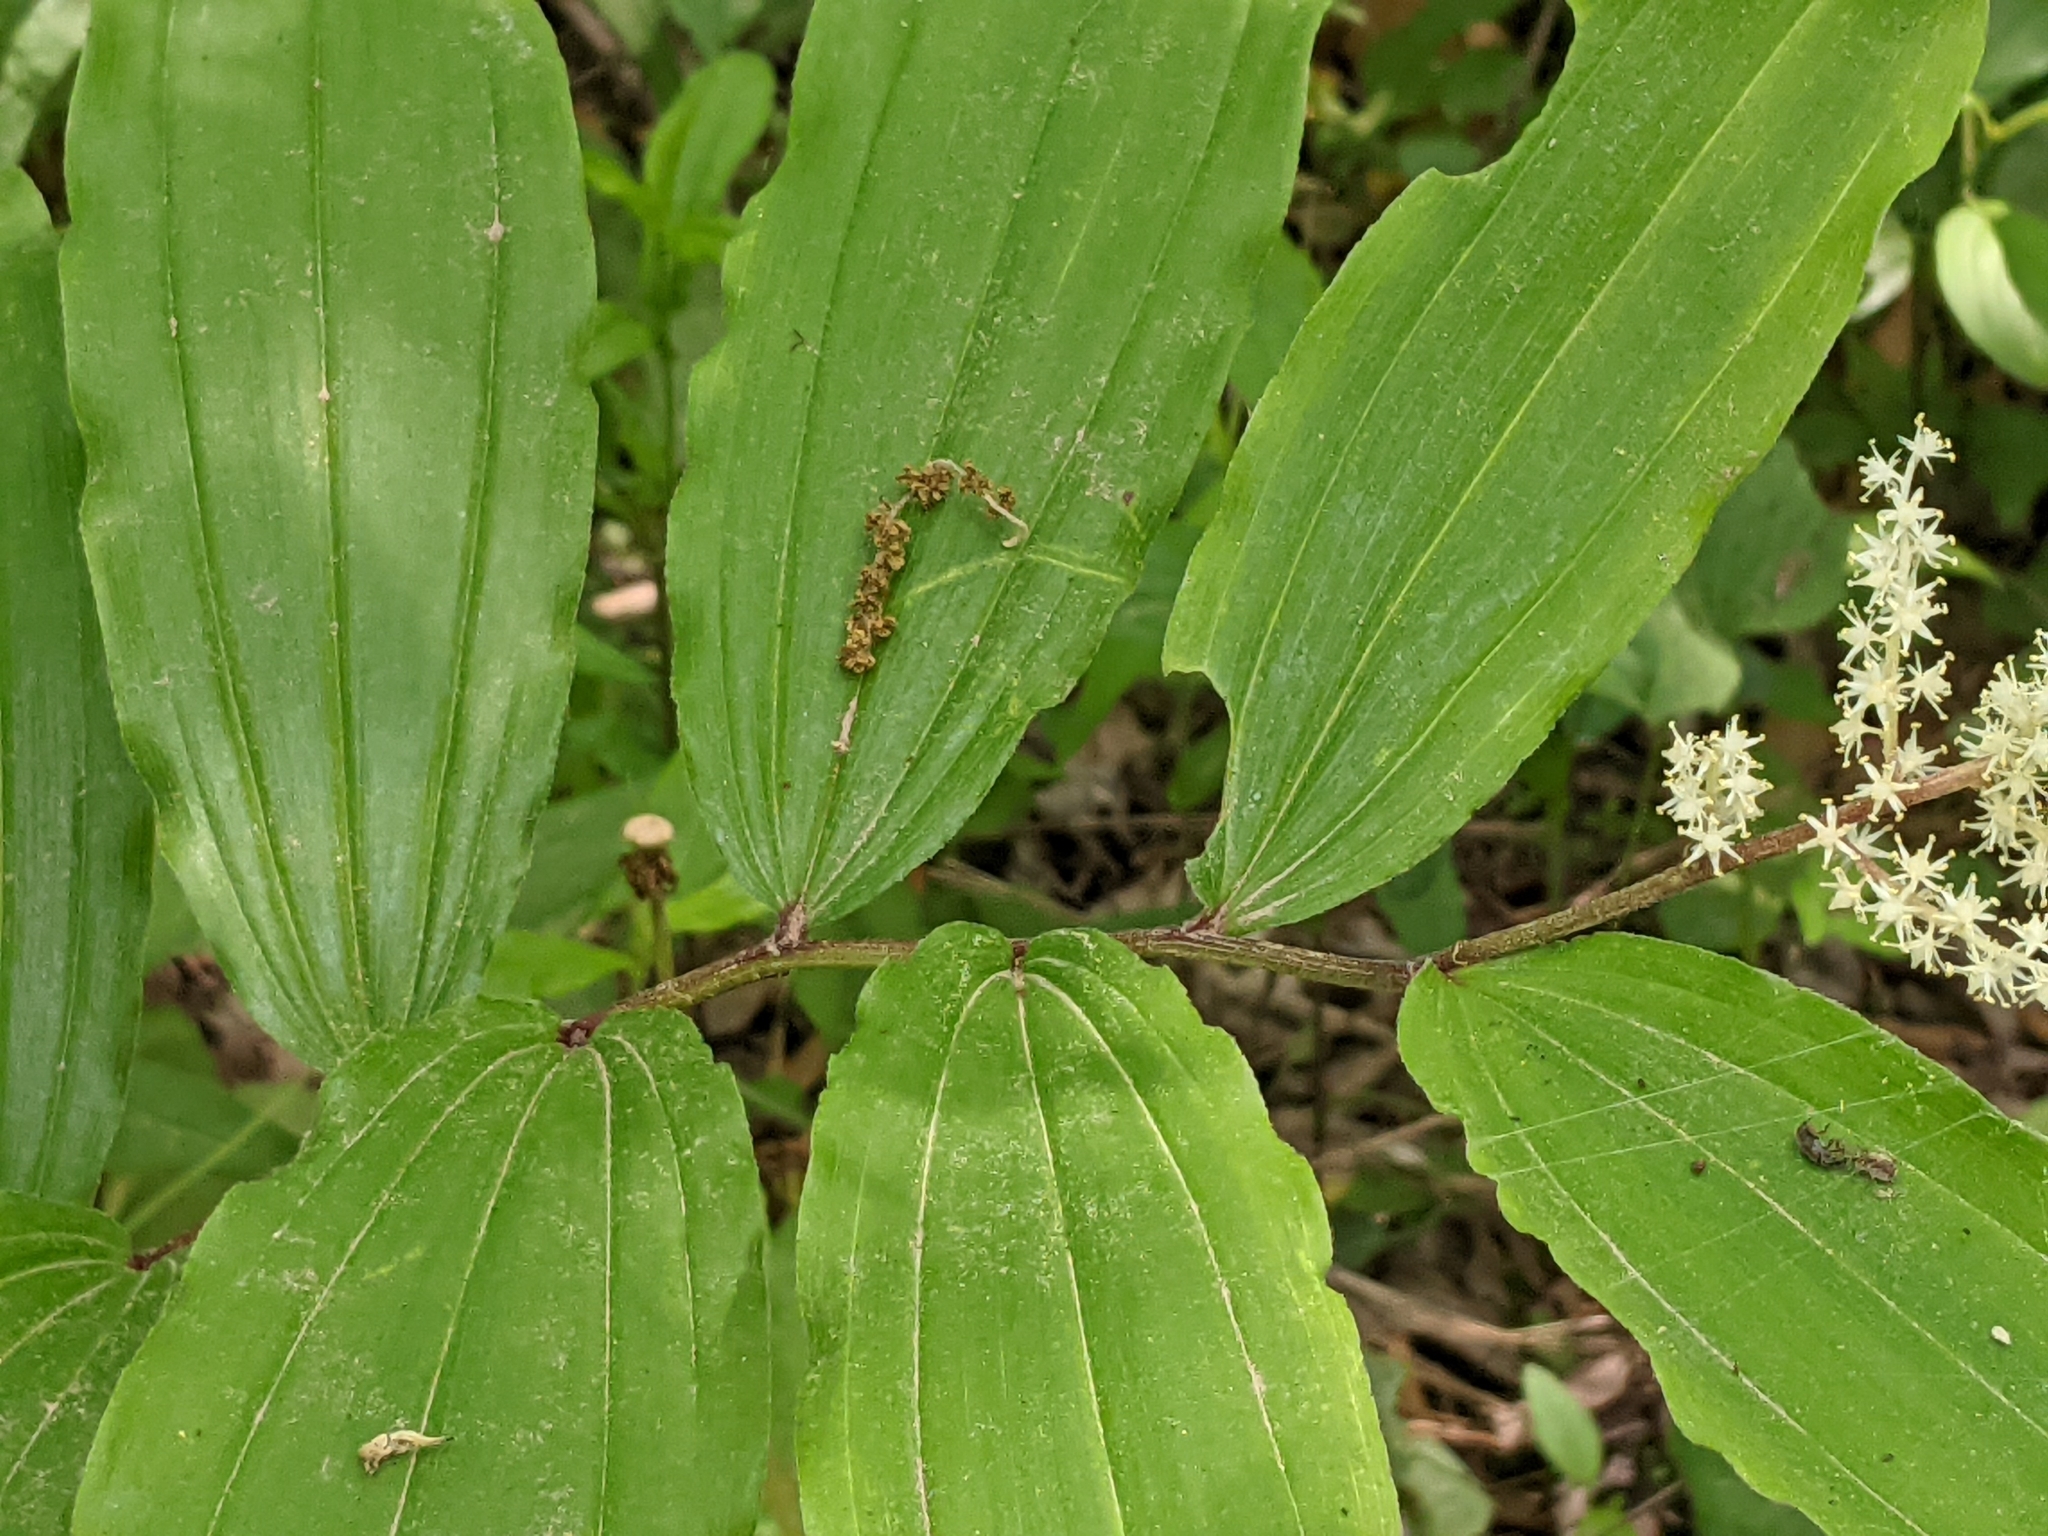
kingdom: Plantae
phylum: Tracheophyta
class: Liliopsida
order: Asparagales
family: Asparagaceae
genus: Maianthemum
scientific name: Maianthemum racemosum
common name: False spikenard
